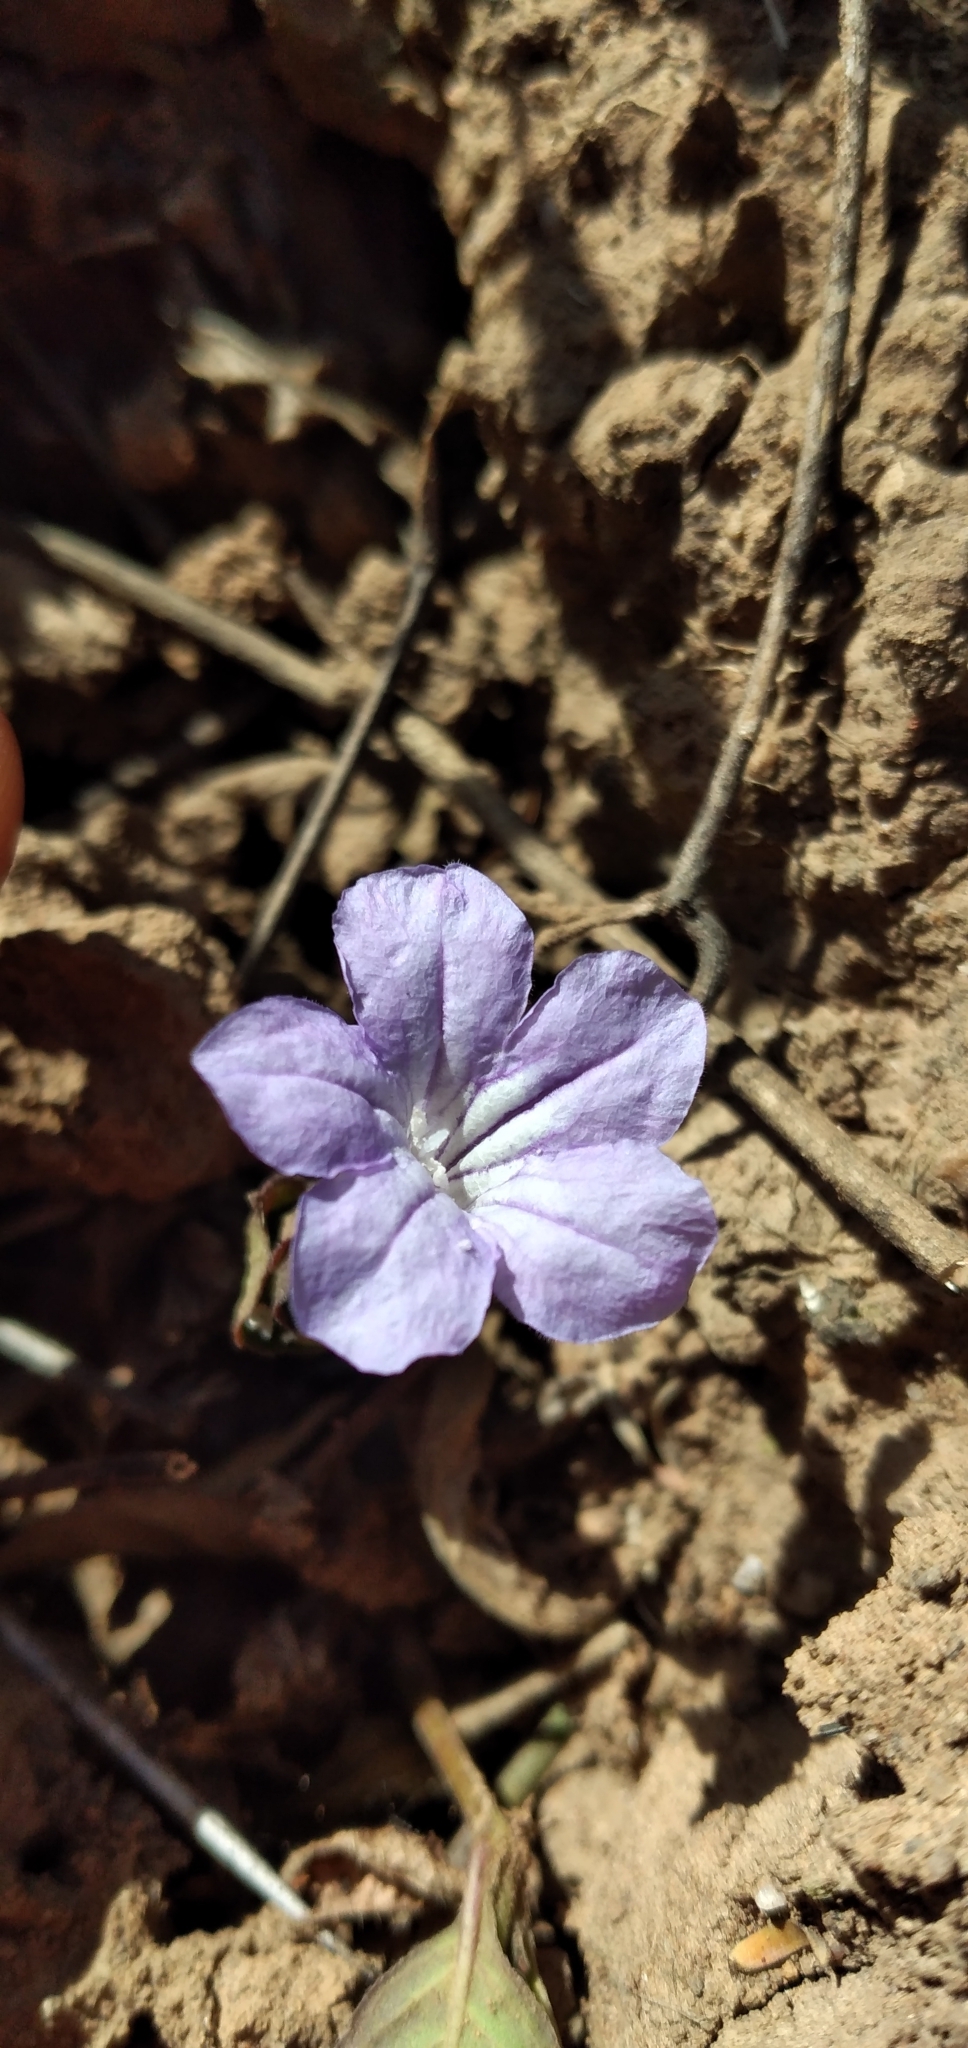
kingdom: Plantae
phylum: Tracheophyta
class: Magnoliopsida
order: Lamiales
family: Acanthaceae
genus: Ruellia
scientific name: Ruellia erythropus
